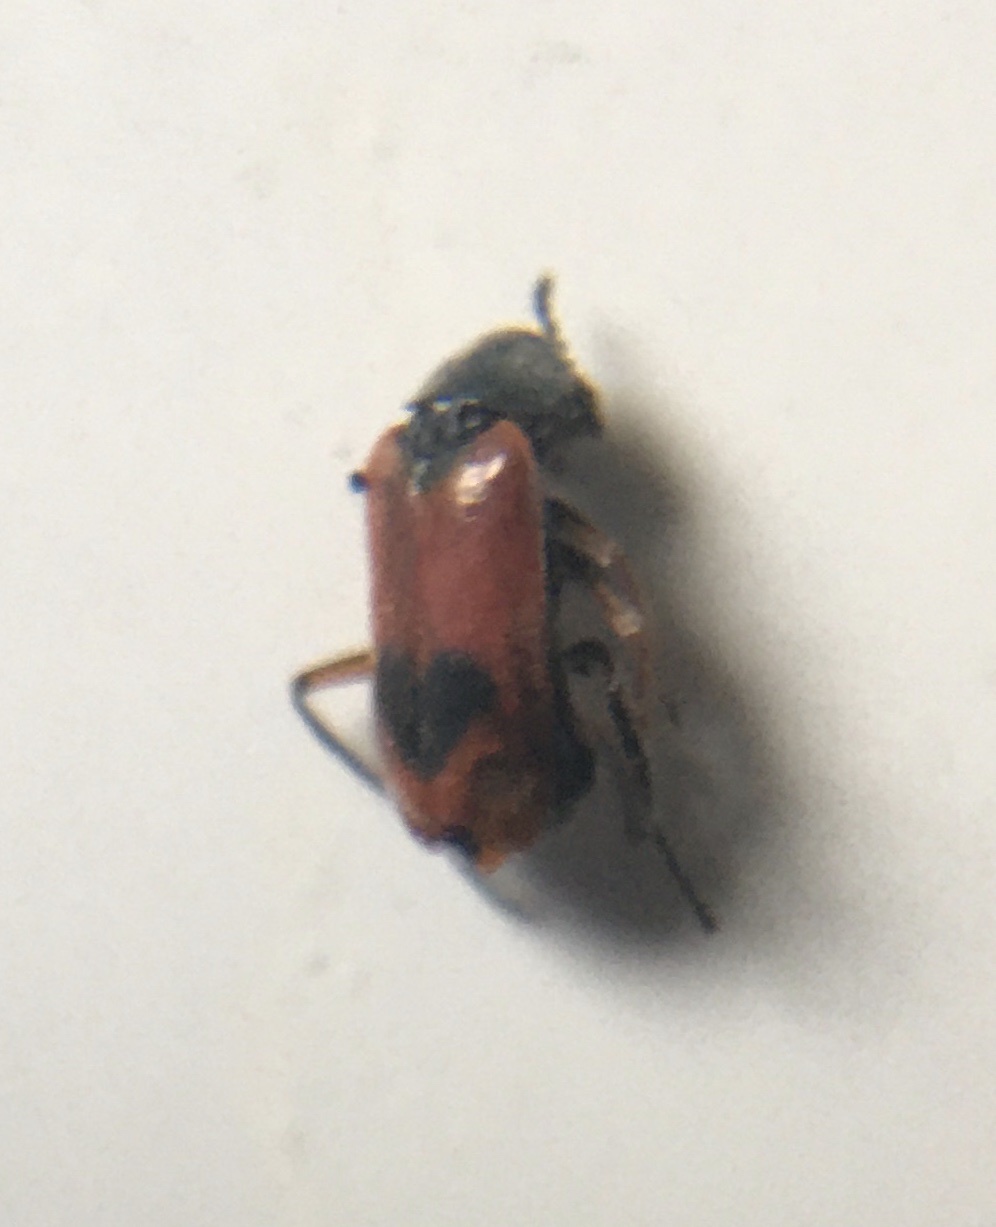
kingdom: Animalia
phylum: Arthropoda
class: Insecta
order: Coleoptera
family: Melyridae
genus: Anthocomus
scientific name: Anthocomus equestris
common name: Black-banded soft-winged flower beetle
